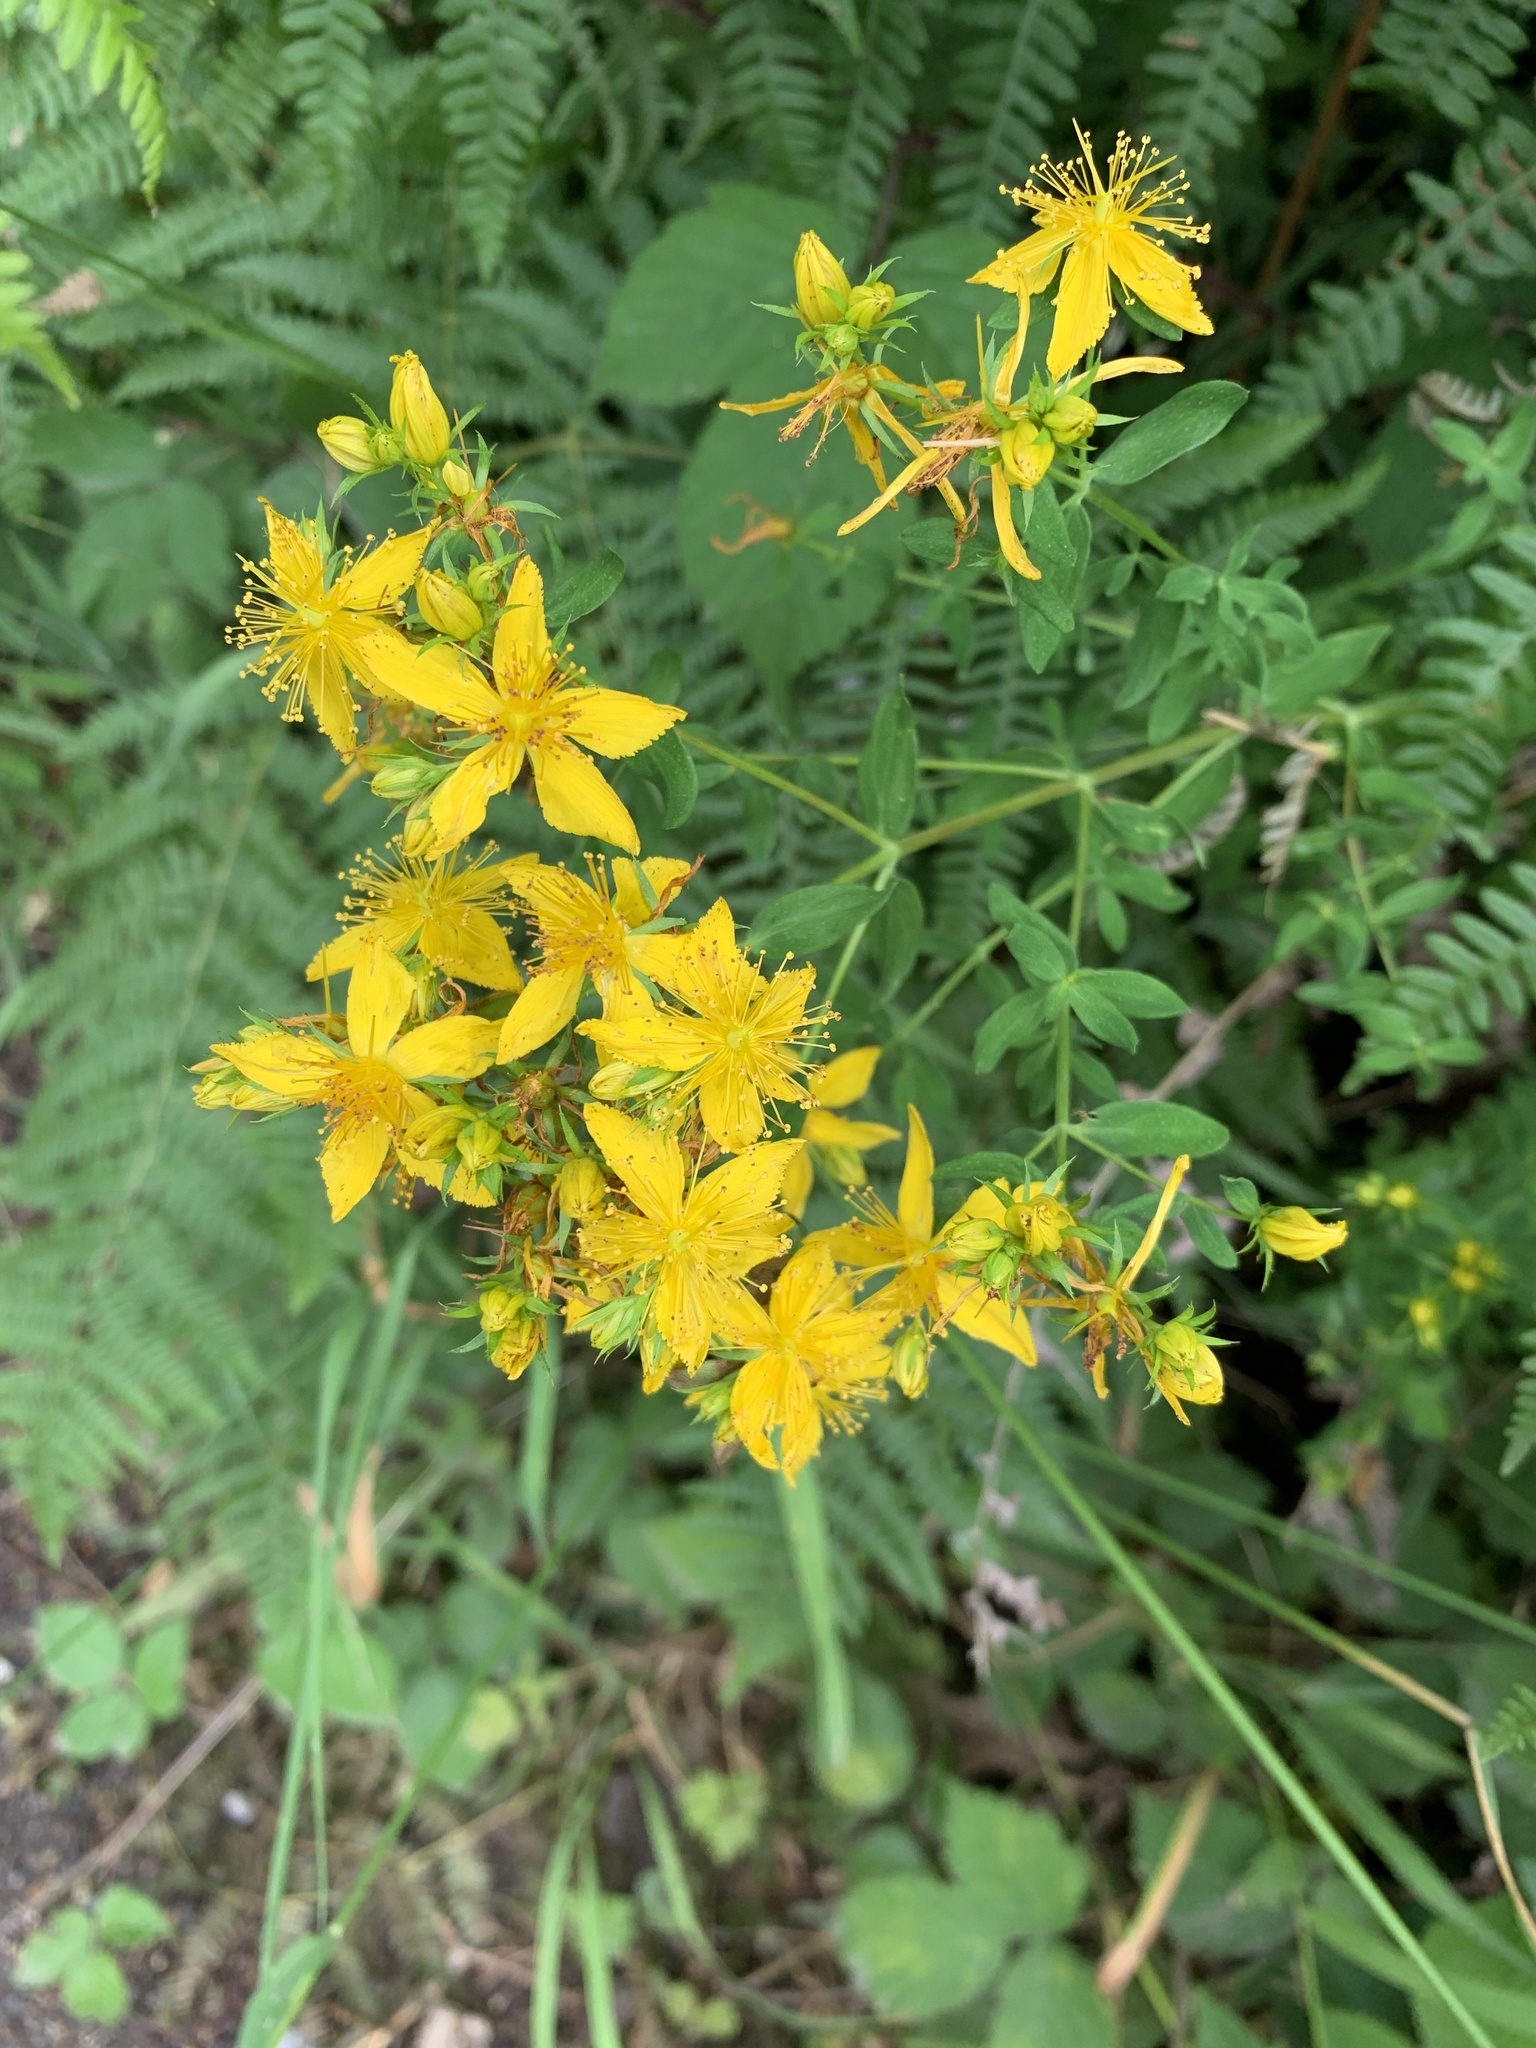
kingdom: Plantae
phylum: Tracheophyta
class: Magnoliopsida
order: Malpighiales
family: Hypericaceae
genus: Hypericum
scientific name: Hypericum perforatum
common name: Common st. johnswort
